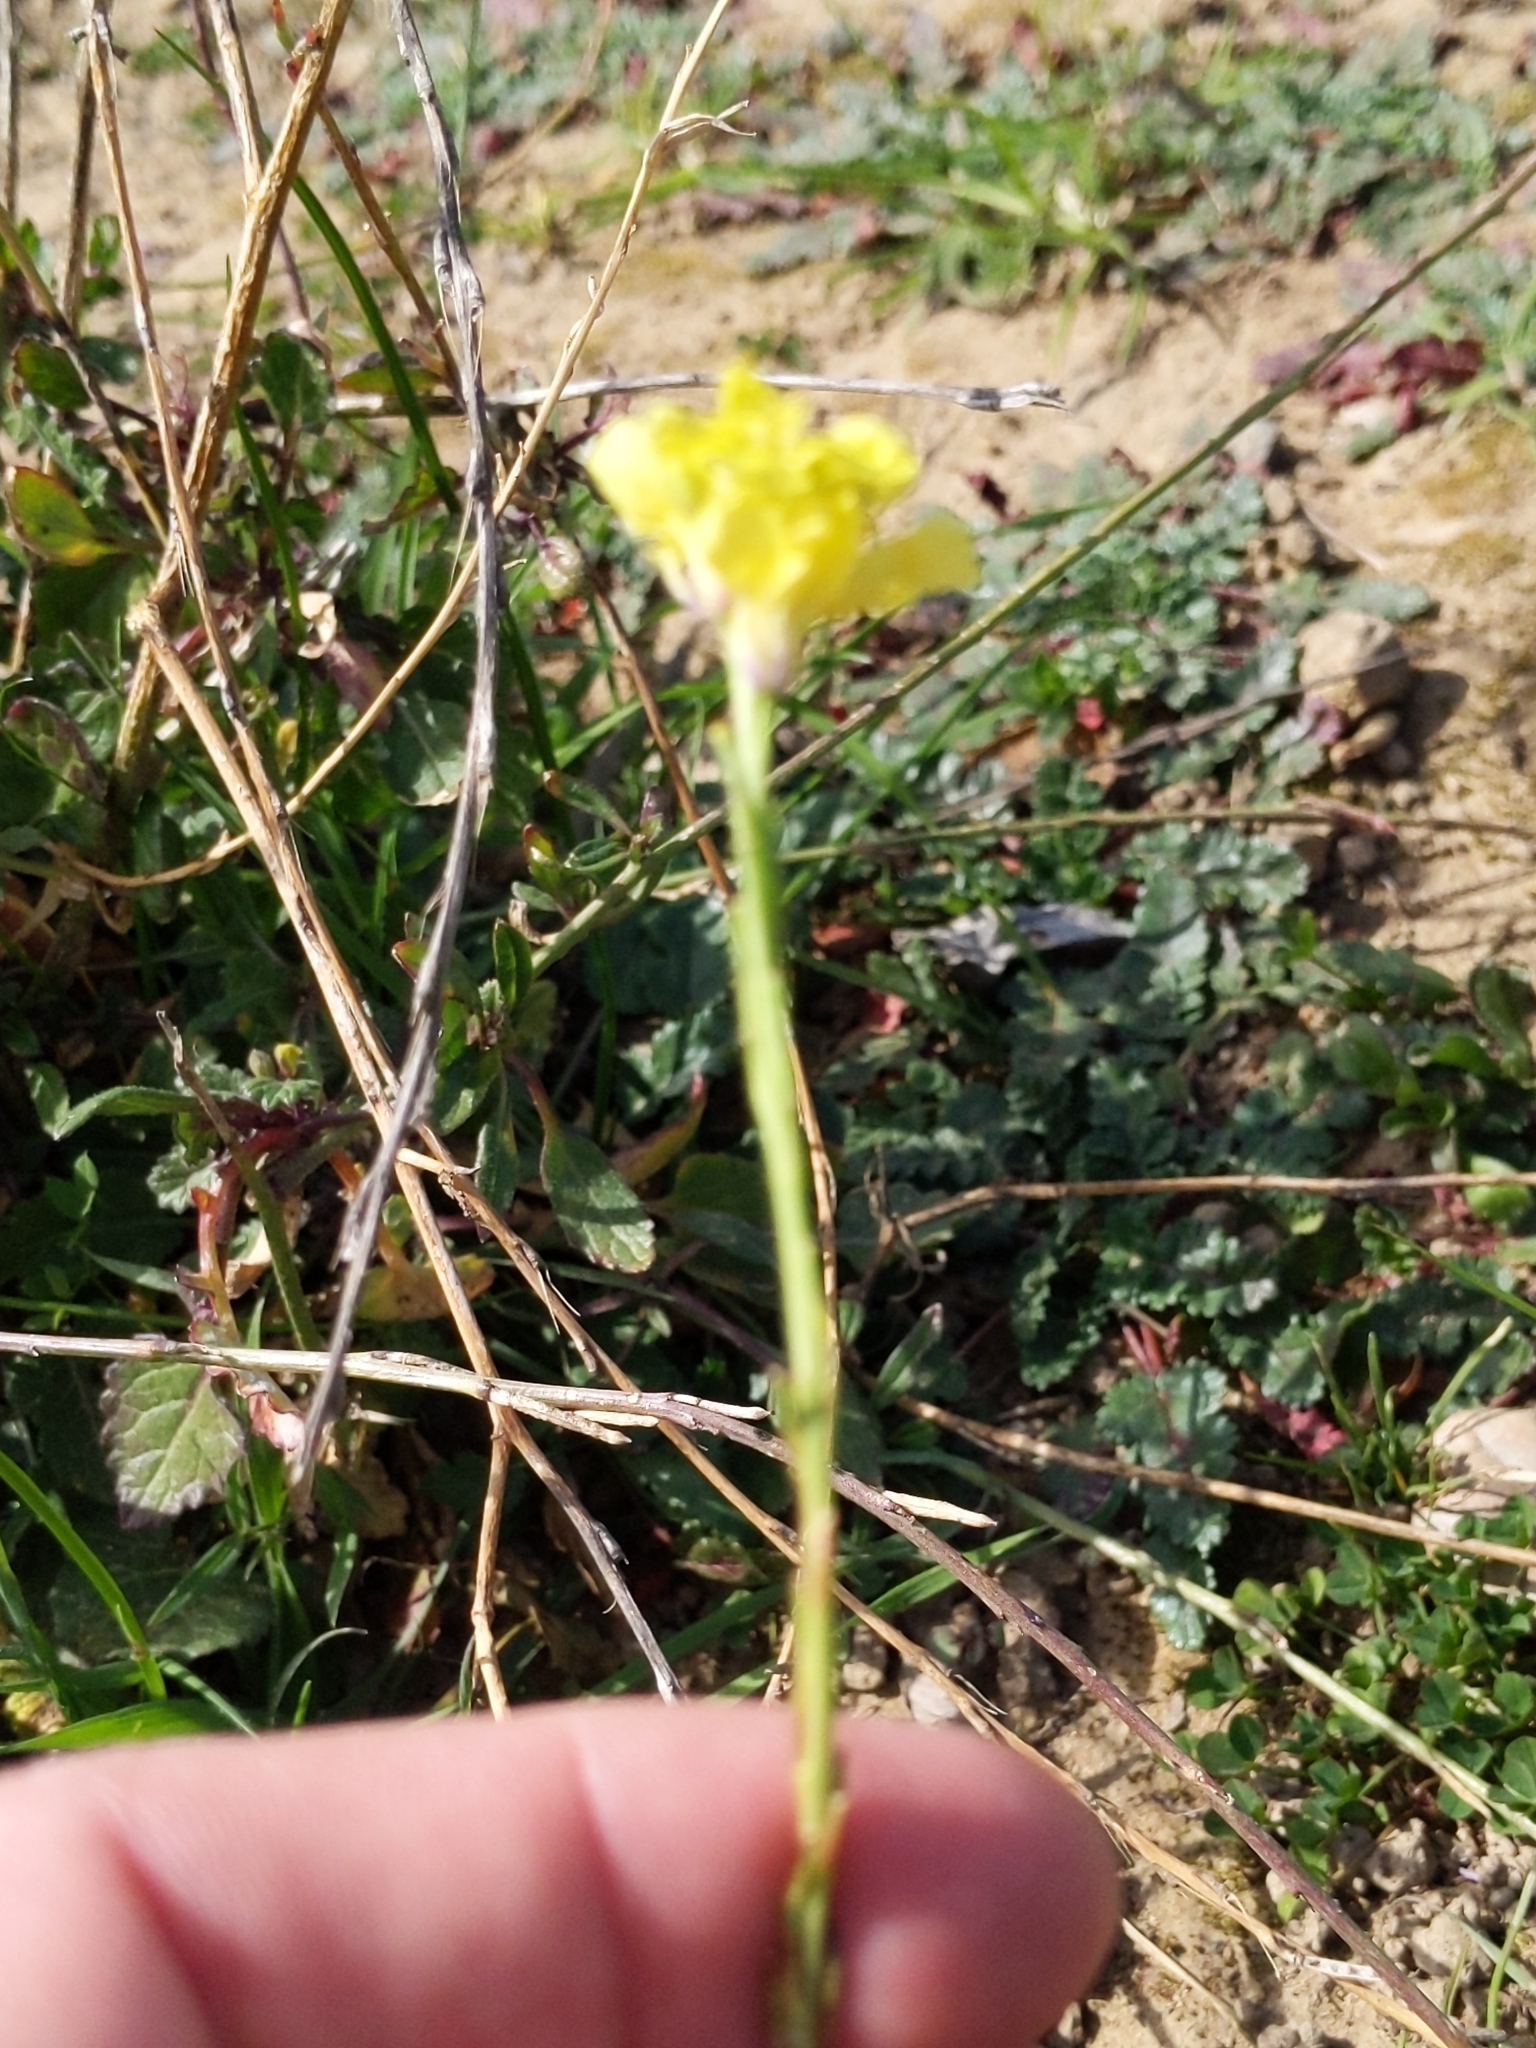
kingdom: Plantae
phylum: Tracheophyta
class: Magnoliopsida
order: Brassicales
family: Brassicaceae
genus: Hirschfeldia
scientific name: Hirschfeldia incana
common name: Hoary mustard
